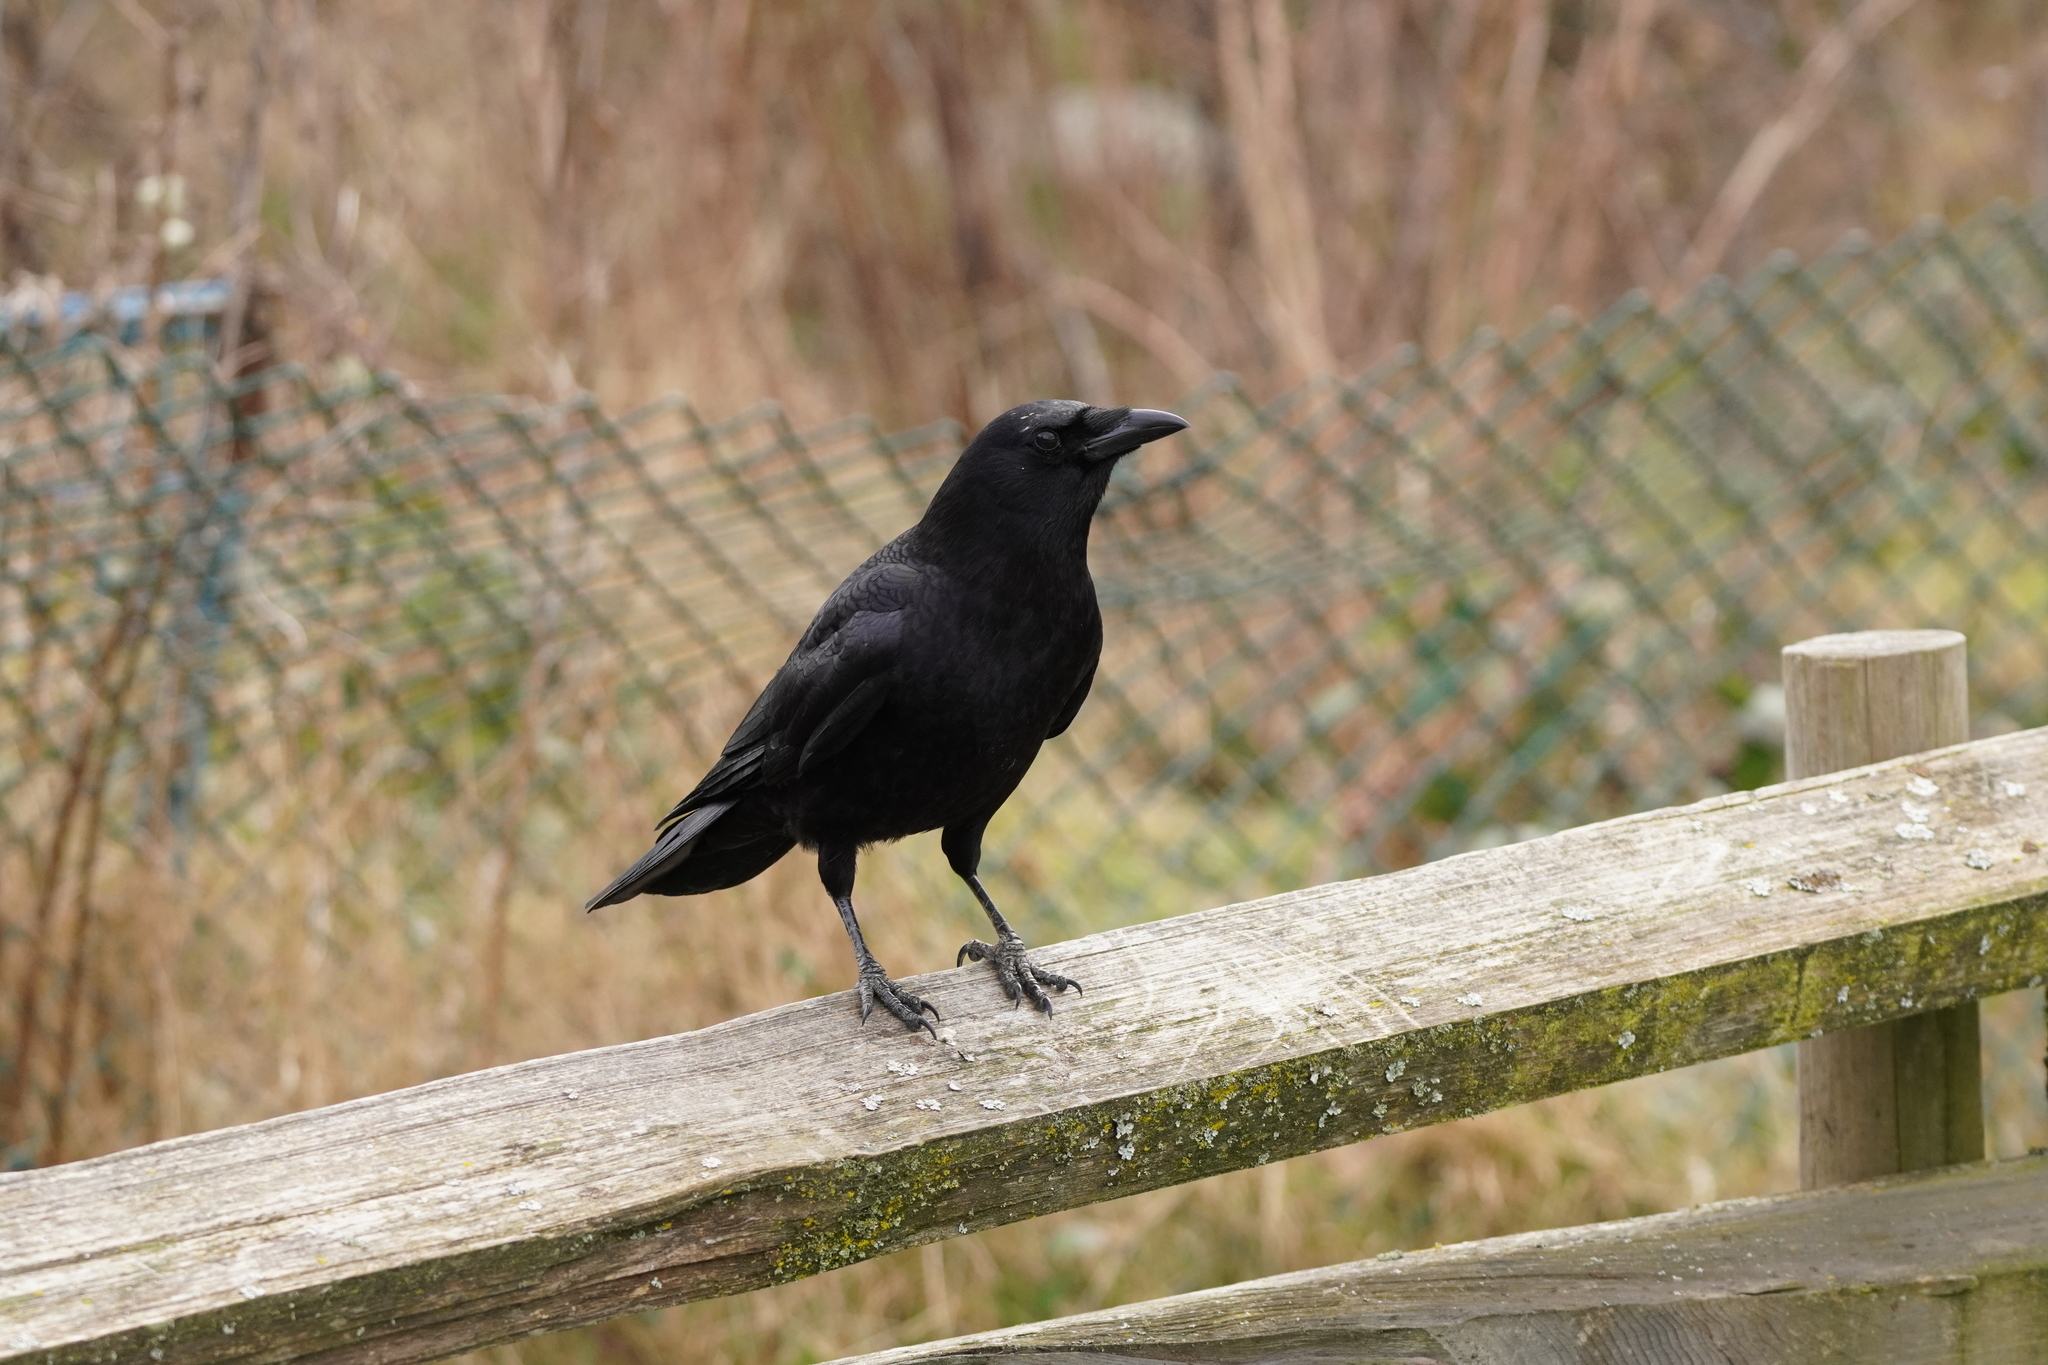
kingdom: Animalia
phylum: Chordata
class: Aves
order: Passeriformes
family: Corvidae
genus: Corvus
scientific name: Corvus brachyrhynchos
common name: American crow
